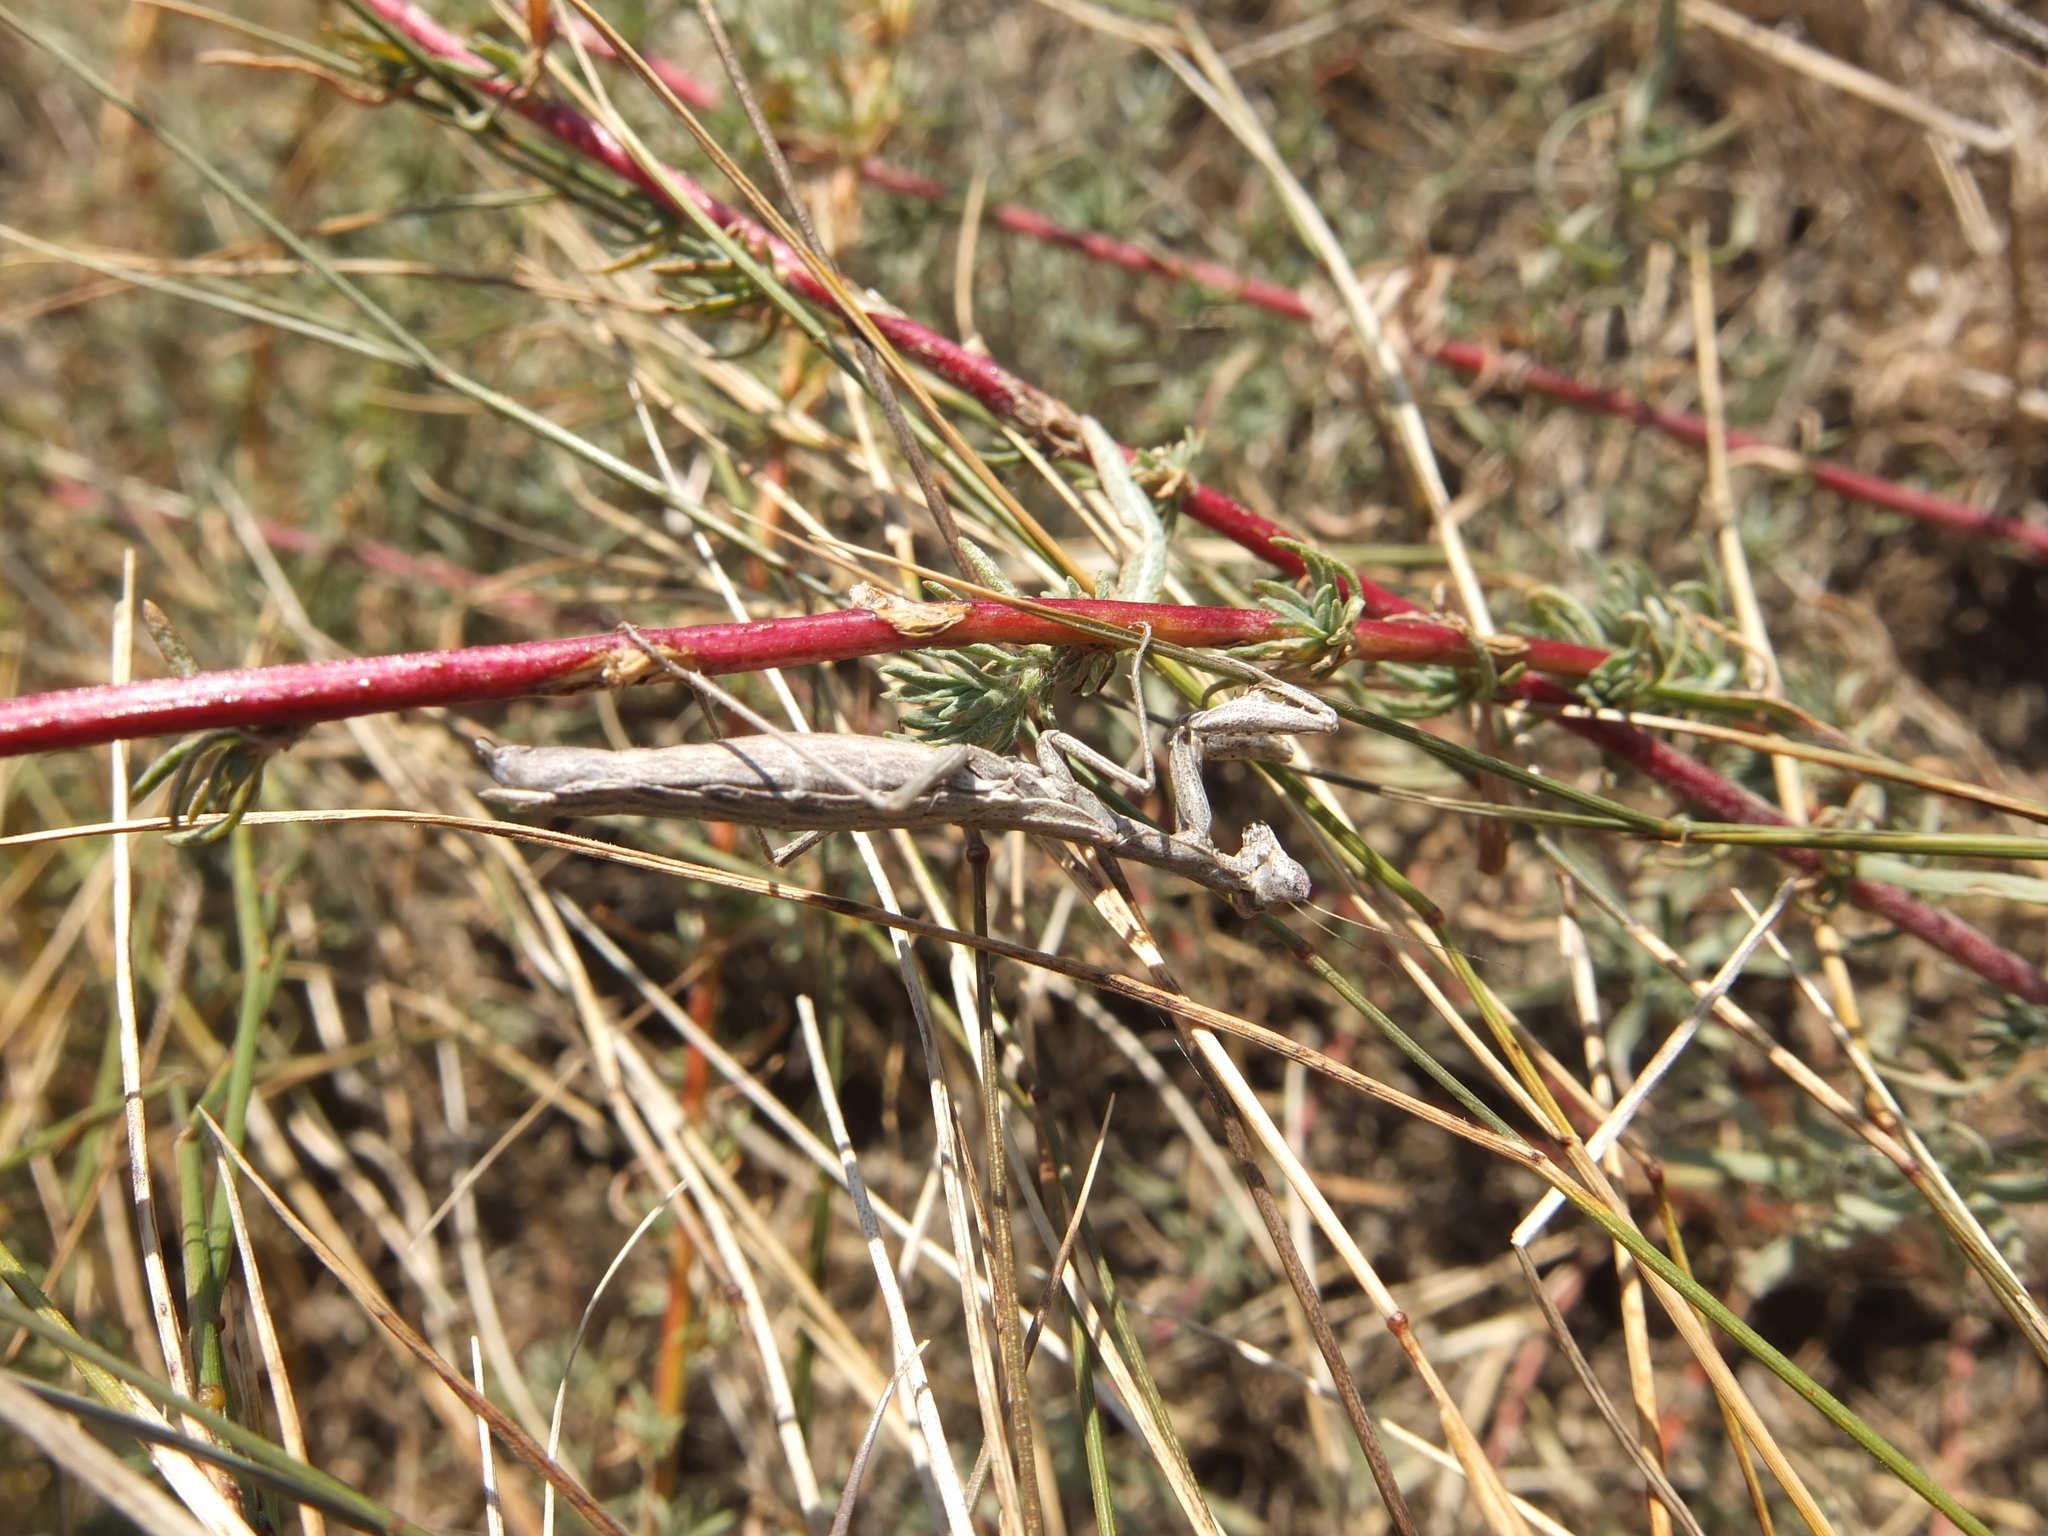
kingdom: Animalia
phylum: Arthropoda
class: Insecta
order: Mantodea
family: Amelidae
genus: Ameles
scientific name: Ameles heldreichi
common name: Heldreich's dwarf mantis
